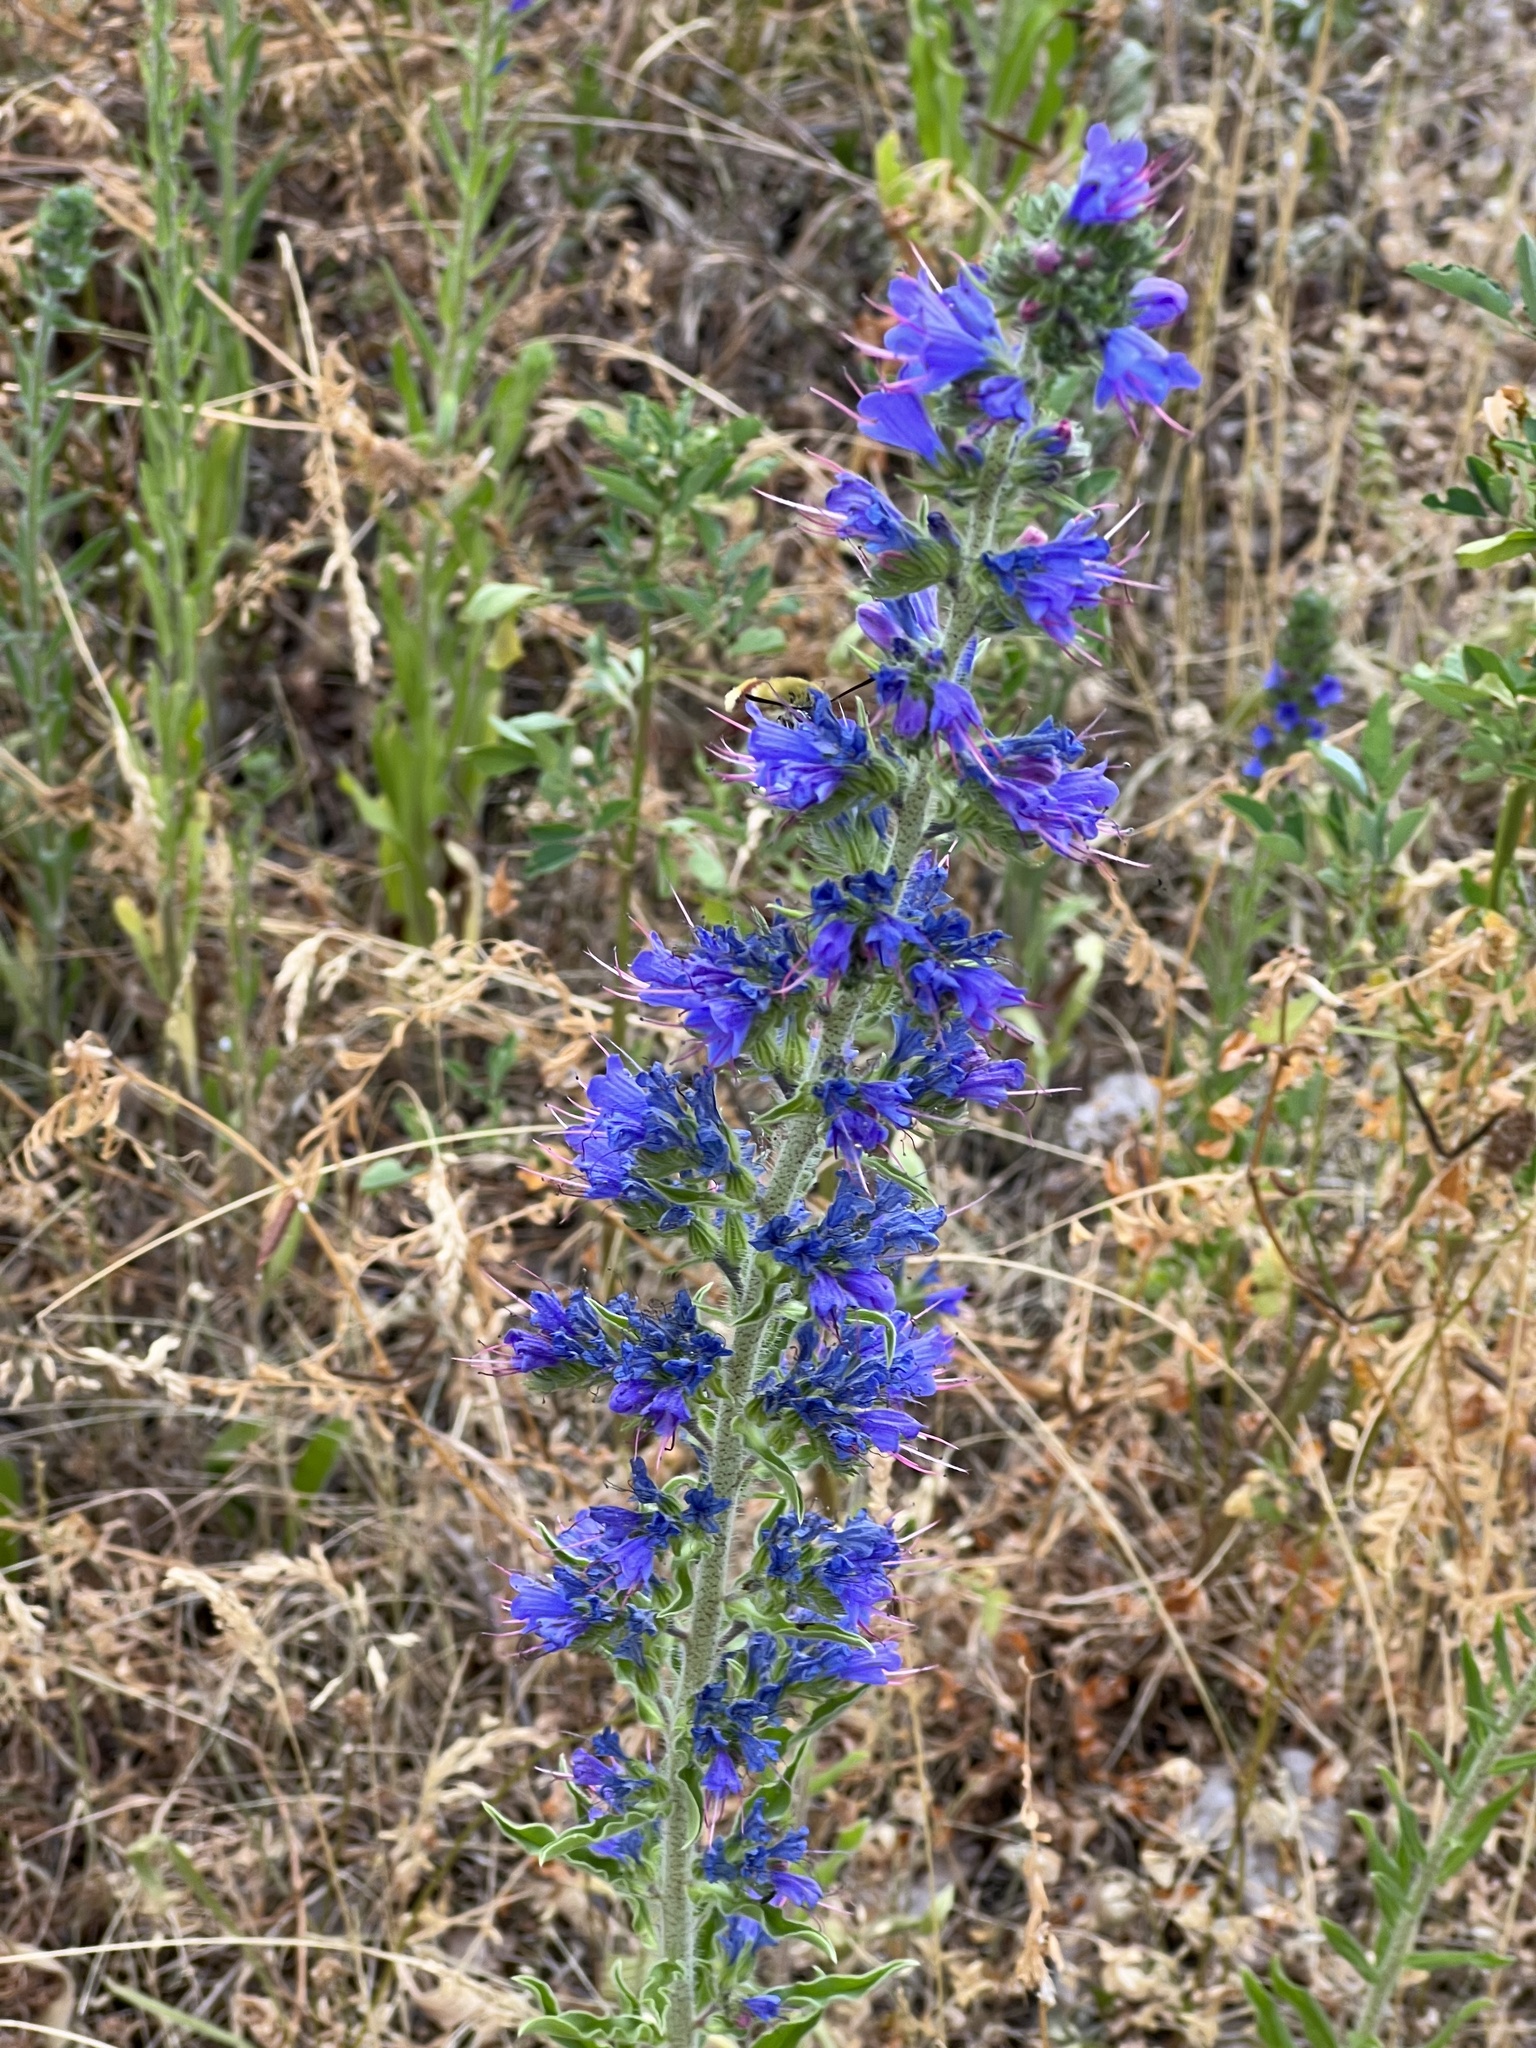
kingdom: Plantae
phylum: Tracheophyta
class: Magnoliopsida
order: Boraginales
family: Boraginaceae
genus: Echium
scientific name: Echium vulgare
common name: Common viper's bugloss
